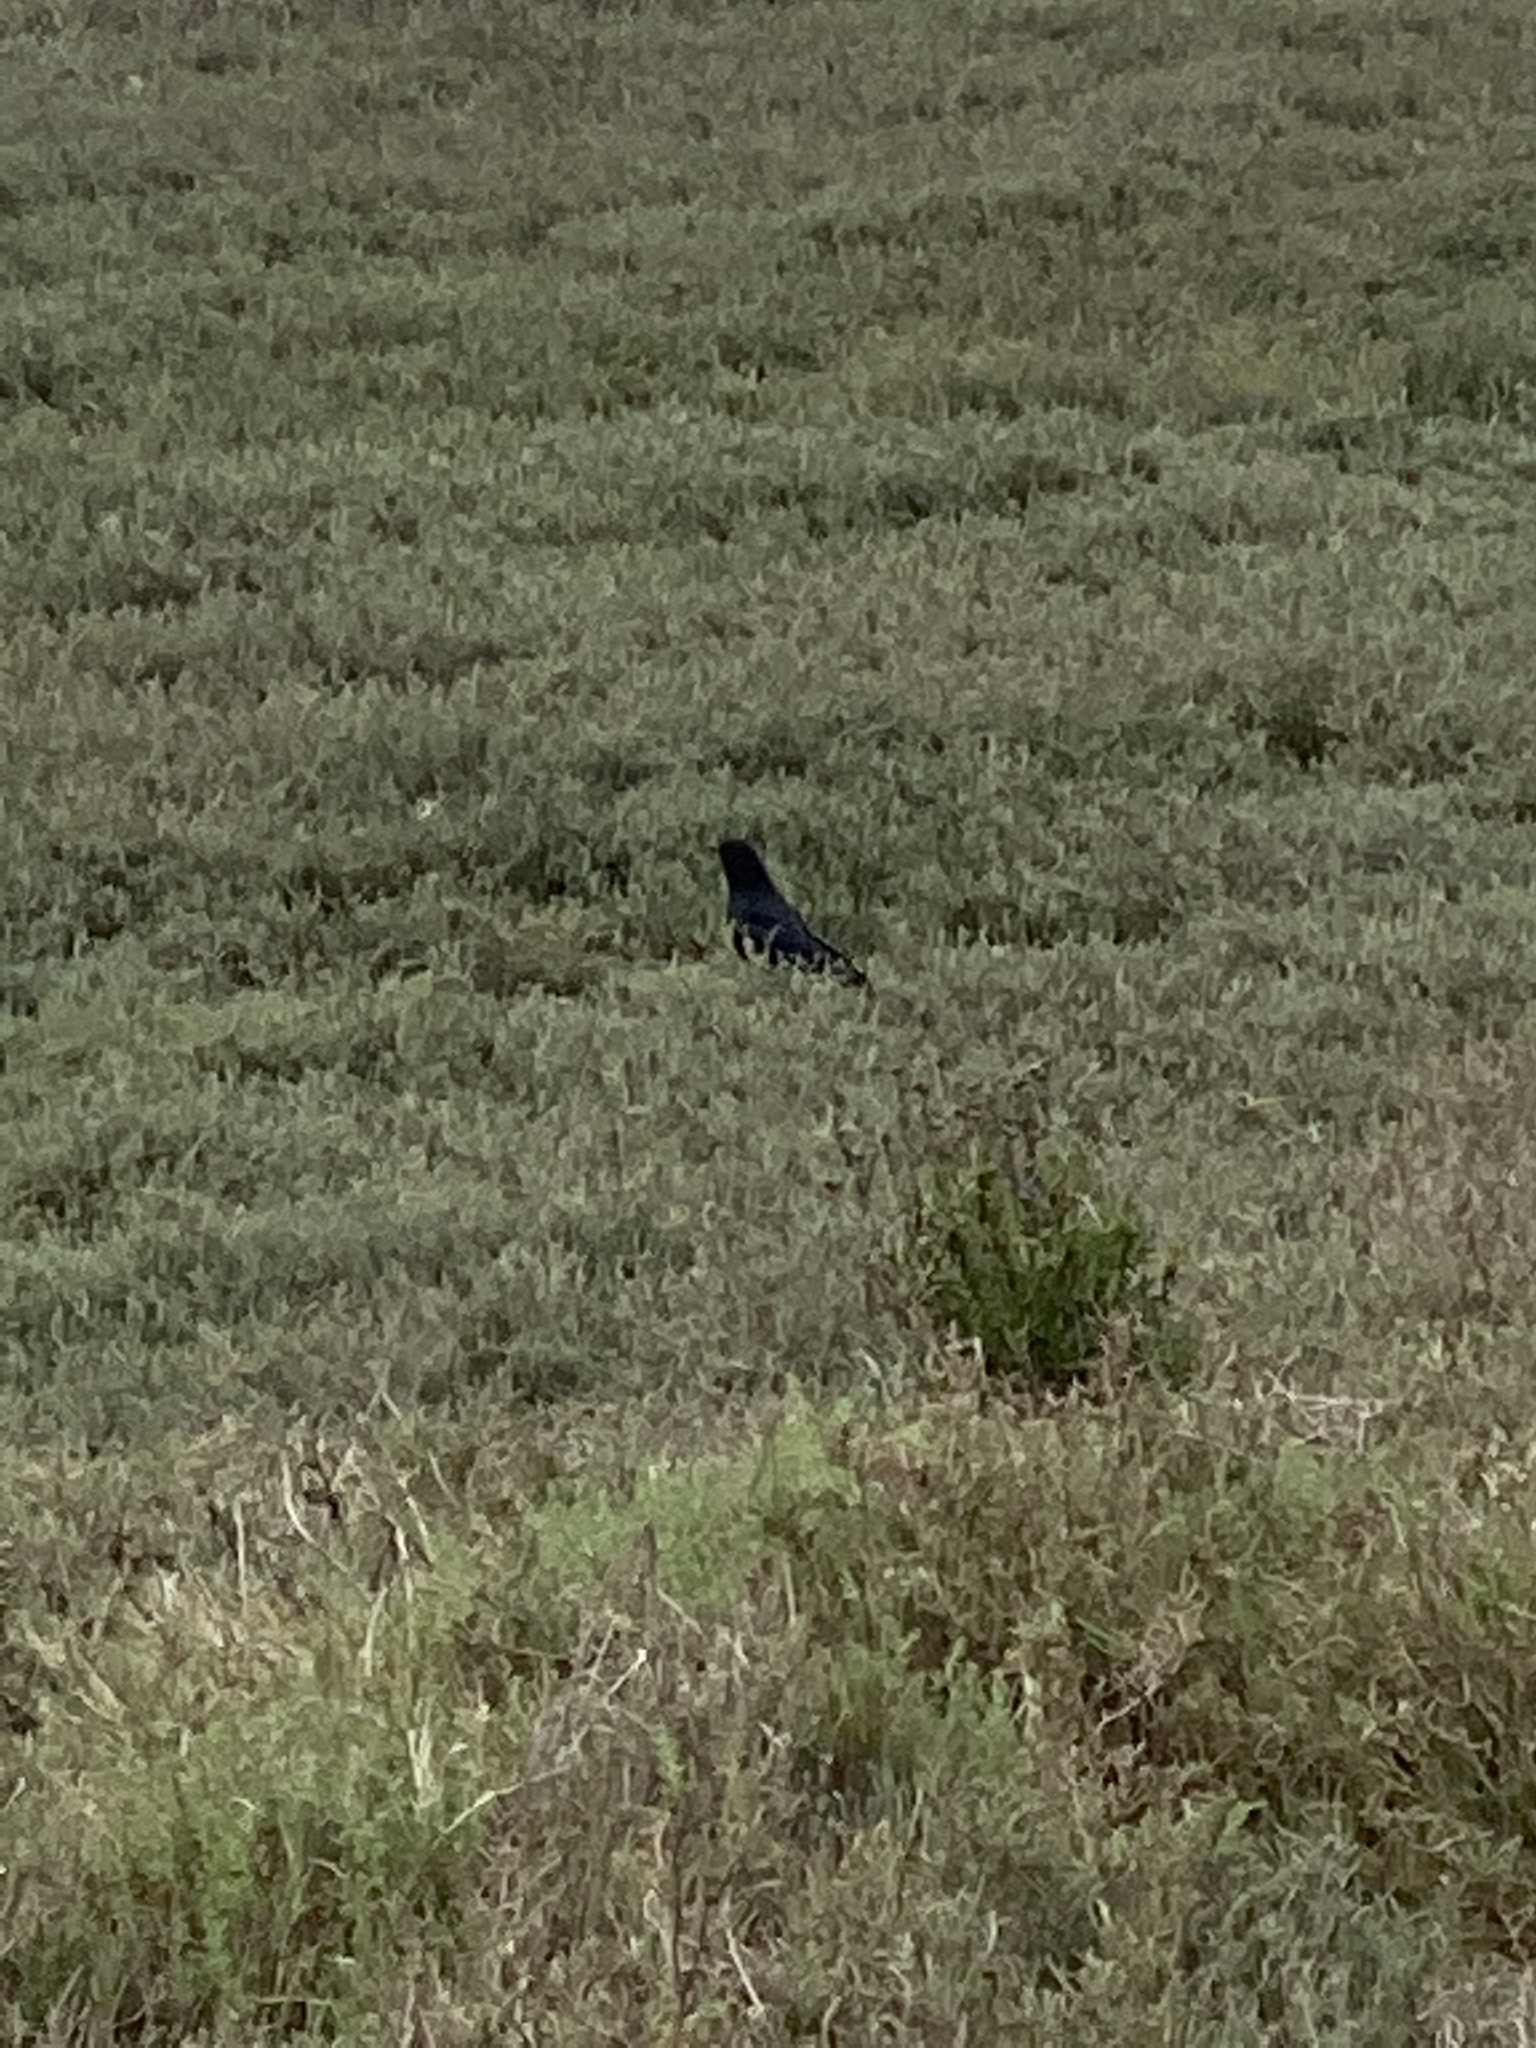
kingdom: Animalia
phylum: Chordata
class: Aves
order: Passeriformes
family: Corvidae
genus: Corvus
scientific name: Corvus brachyrhynchos
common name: American crow
